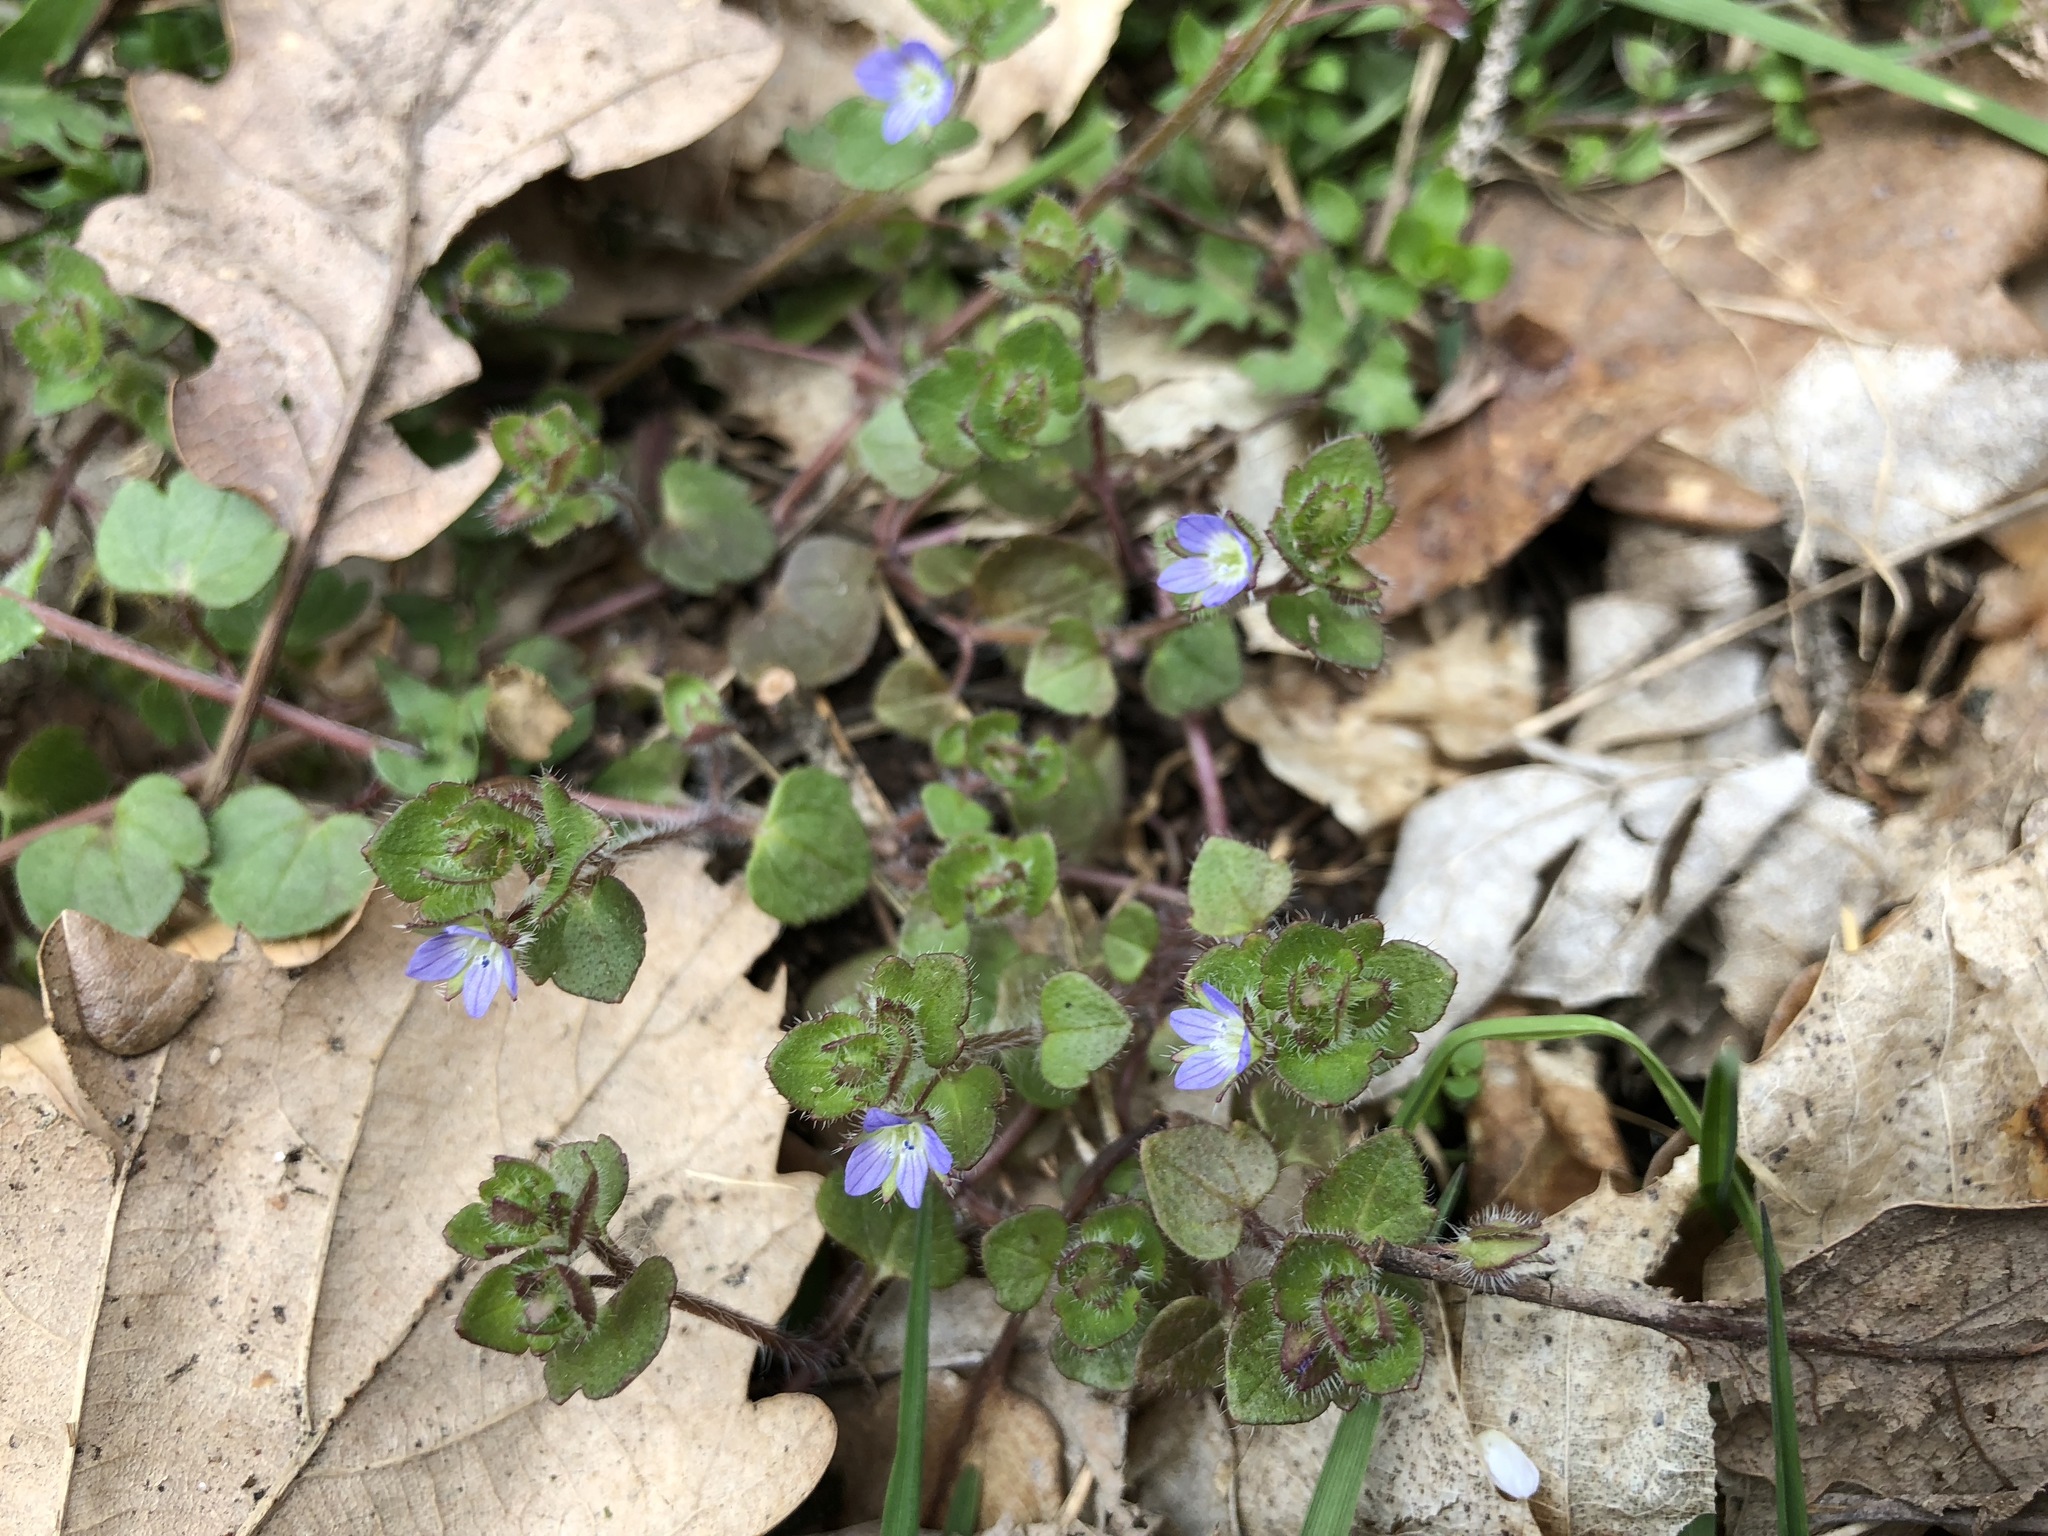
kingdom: Plantae
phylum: Tracheophyta
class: Magnoliopsida
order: Lamiales
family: Plantaginaceae
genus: Veronica
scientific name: Veronica hederifolia
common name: Ivy-leaved speedwell
